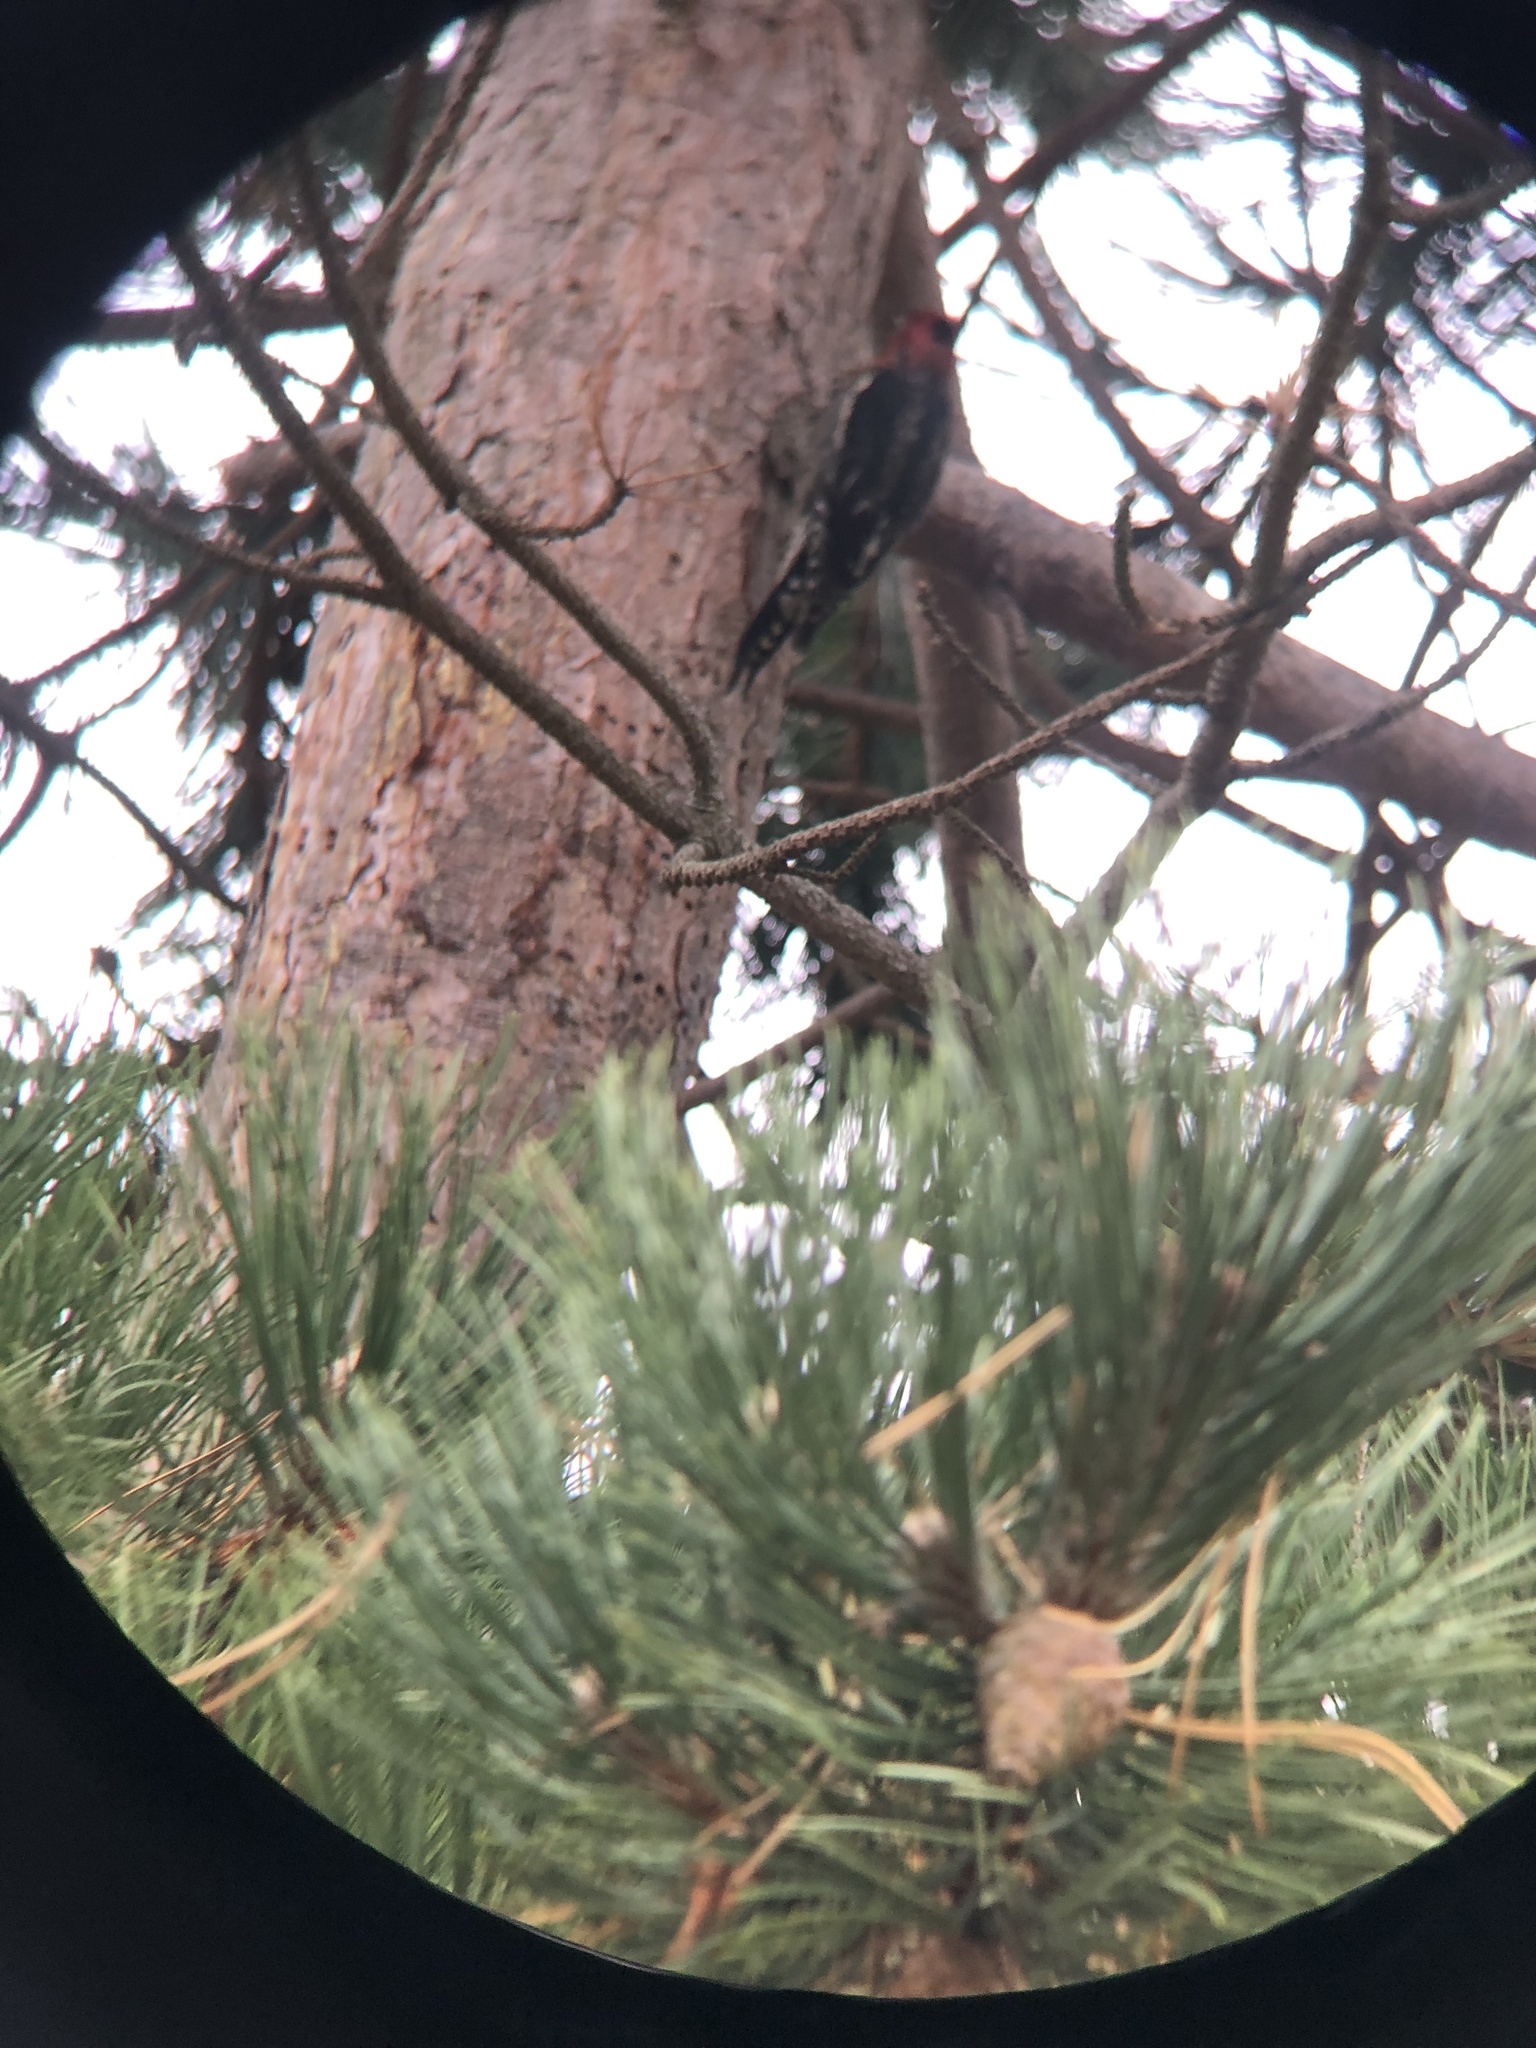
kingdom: Animalia
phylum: Chordata
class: Aves
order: Piciformes
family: Picidae
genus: Sphyrapicus
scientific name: Sphyrapicus ruber
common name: Red-breasted sapsucker
